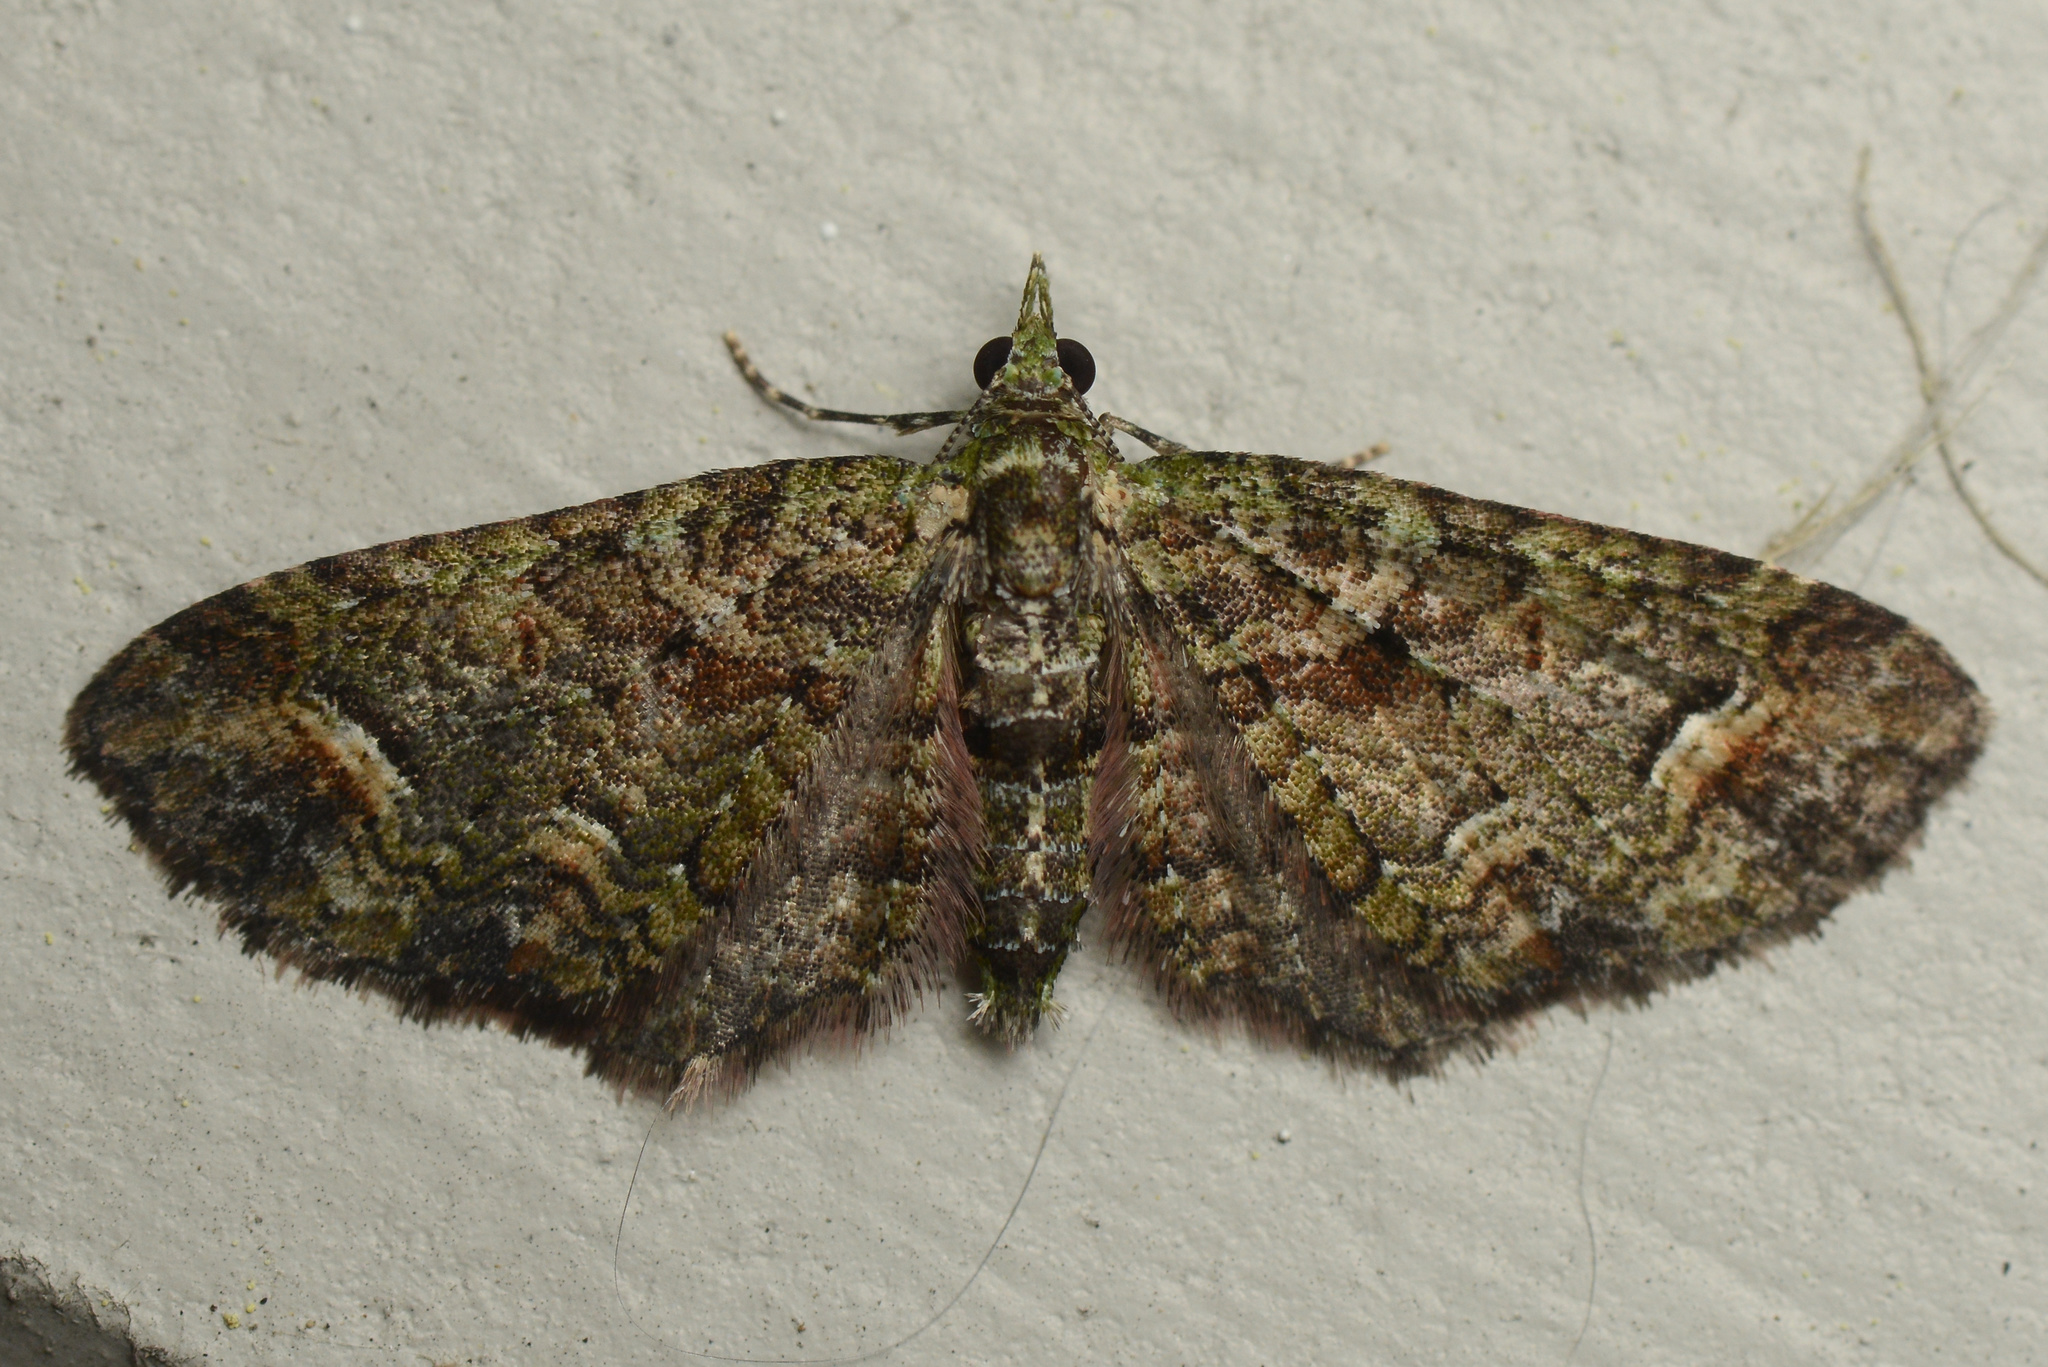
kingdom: Animalia
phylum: Arthropoda
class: Insecta
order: Lepidoptera
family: Geometridae
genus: Idaea
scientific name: Idaea mutanda
